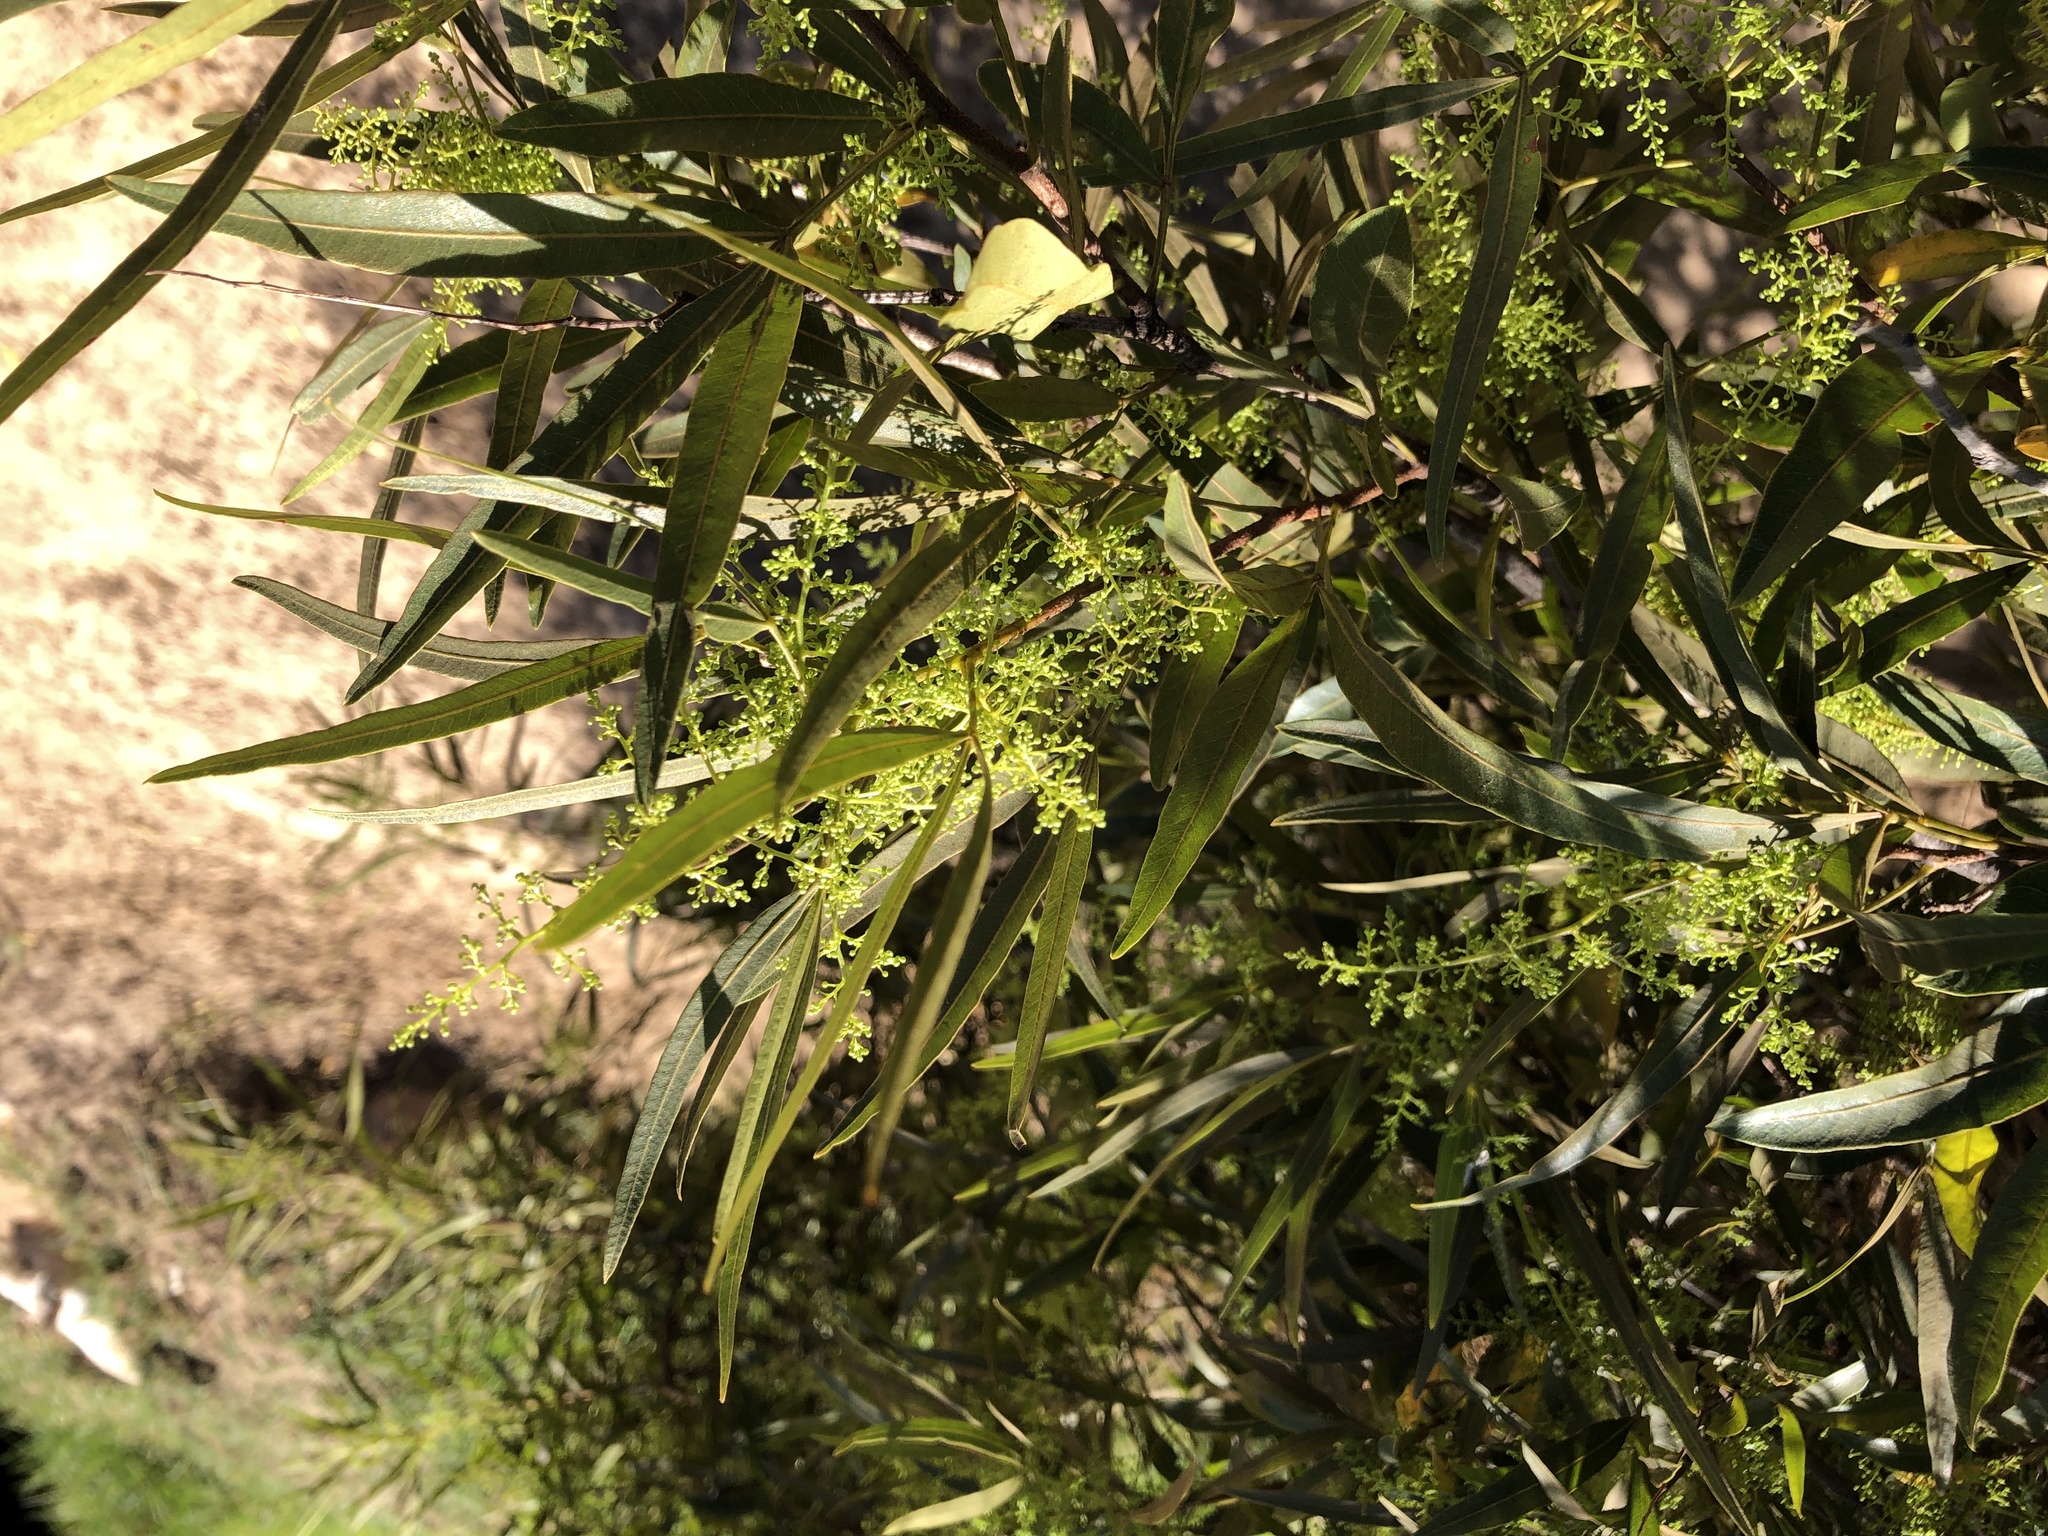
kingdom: Plantae
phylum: Tracheophyta
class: Magnoliopsida
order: Sapindales
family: Anacardiaceae
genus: Searsia
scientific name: Searsia angustifolia
